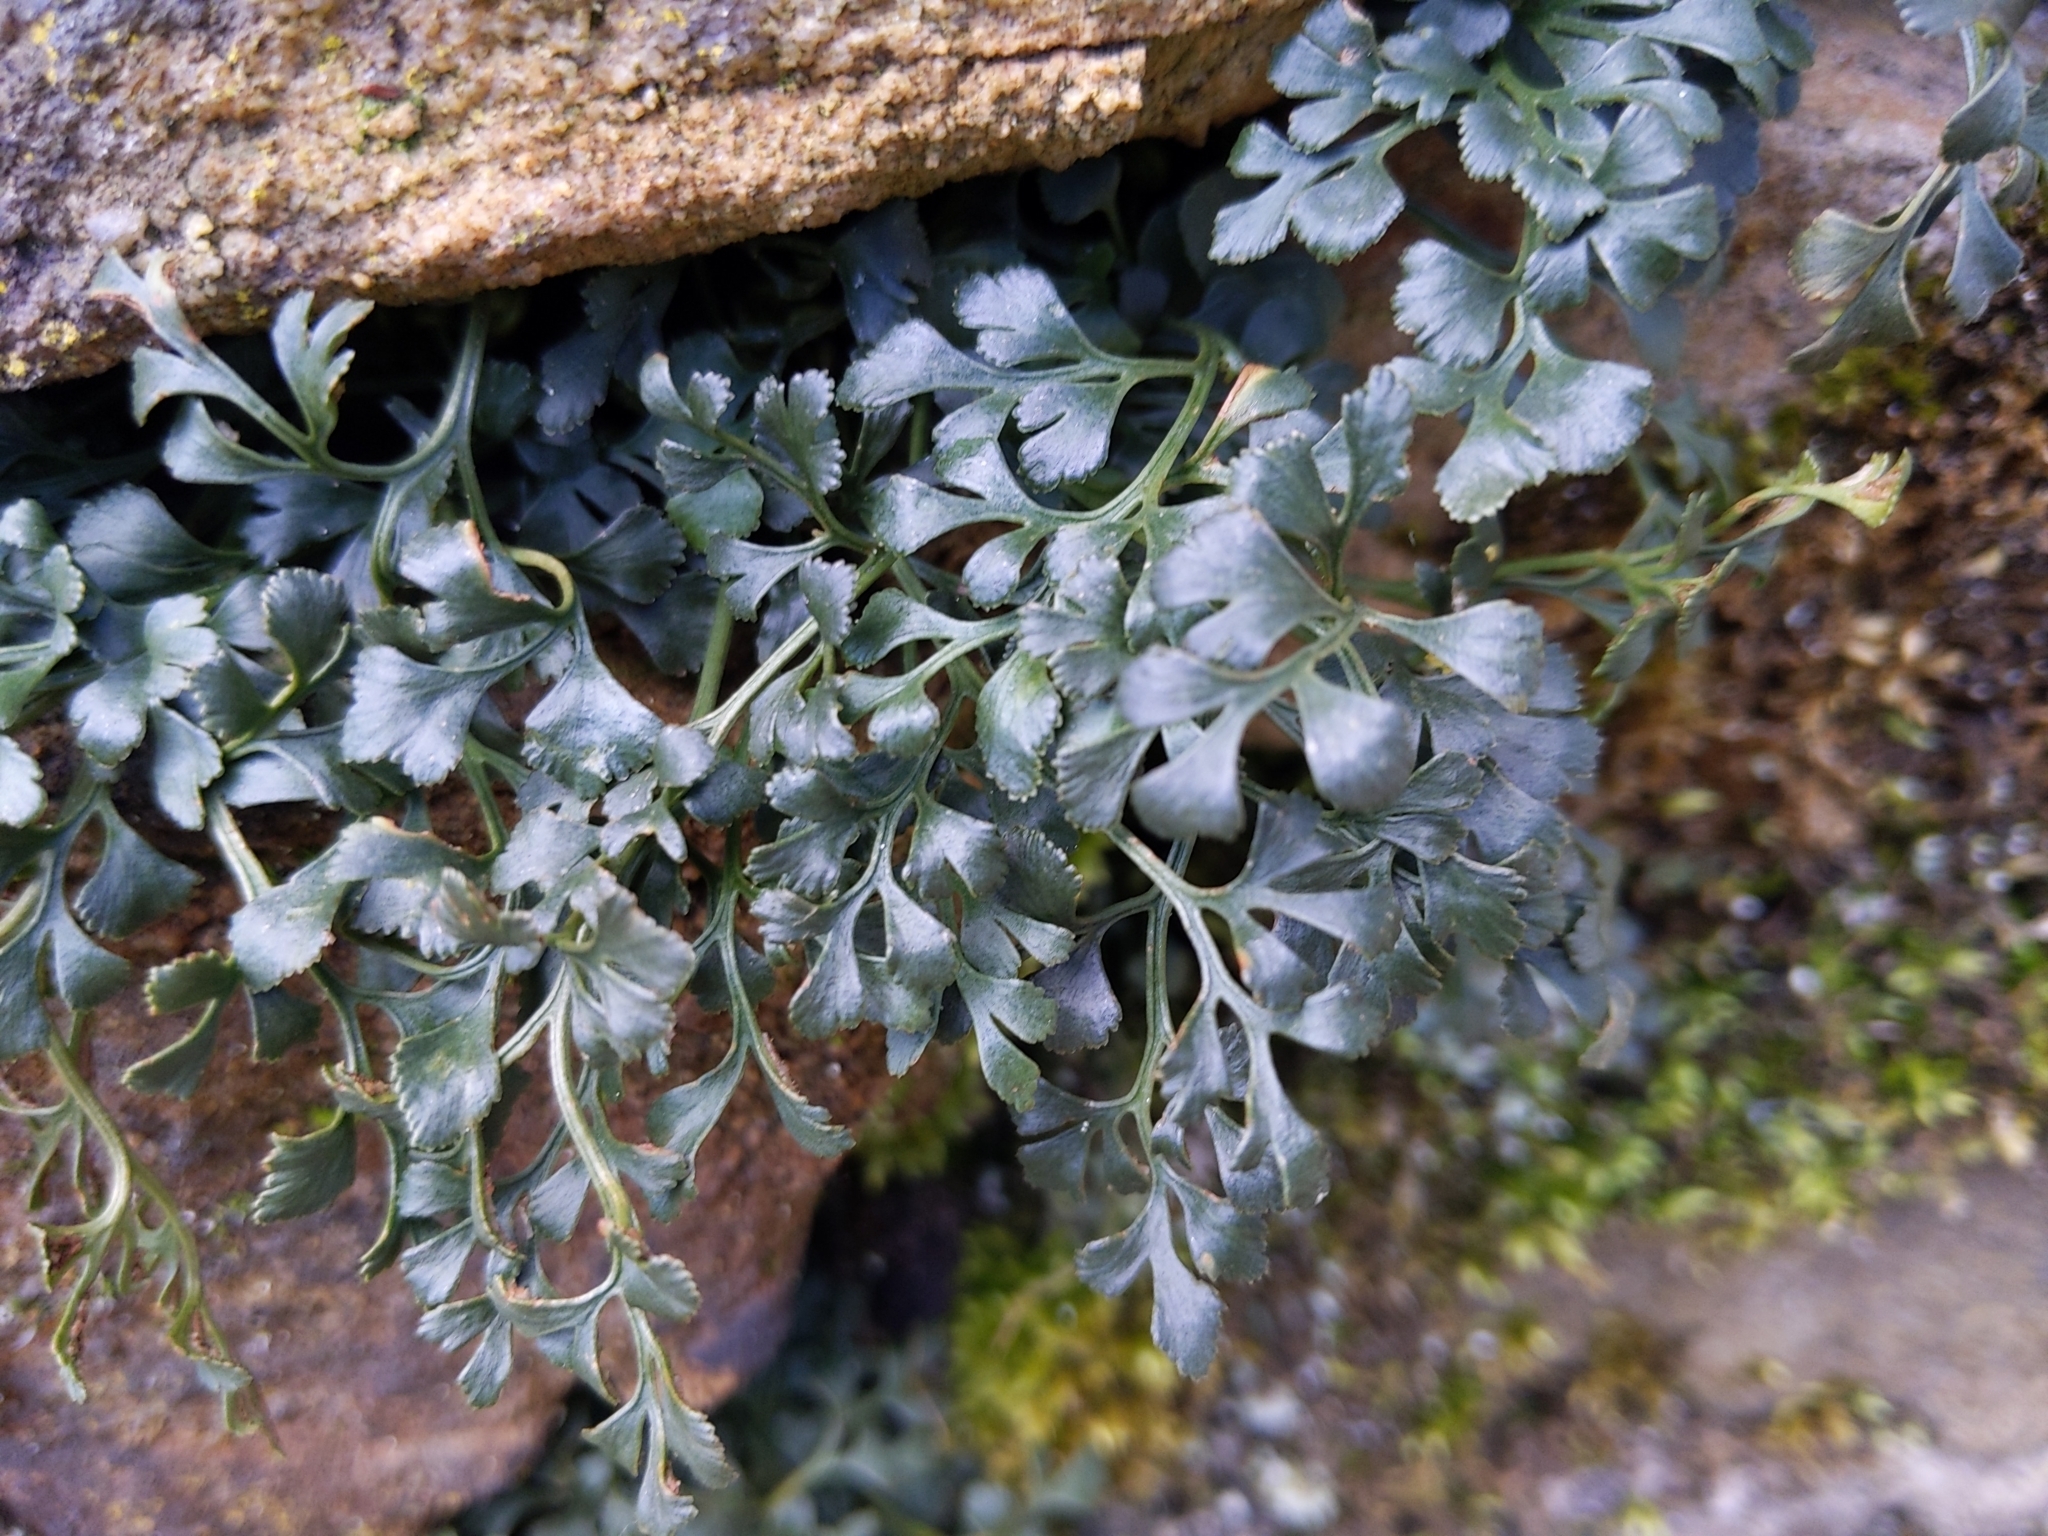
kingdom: Plantae
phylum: Tracheophyta
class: Polypodiopsida
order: Polypodiales
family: Aspleniaceae
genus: Asplenium
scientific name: Asplenium ruta-muraria
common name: Wall-rue
